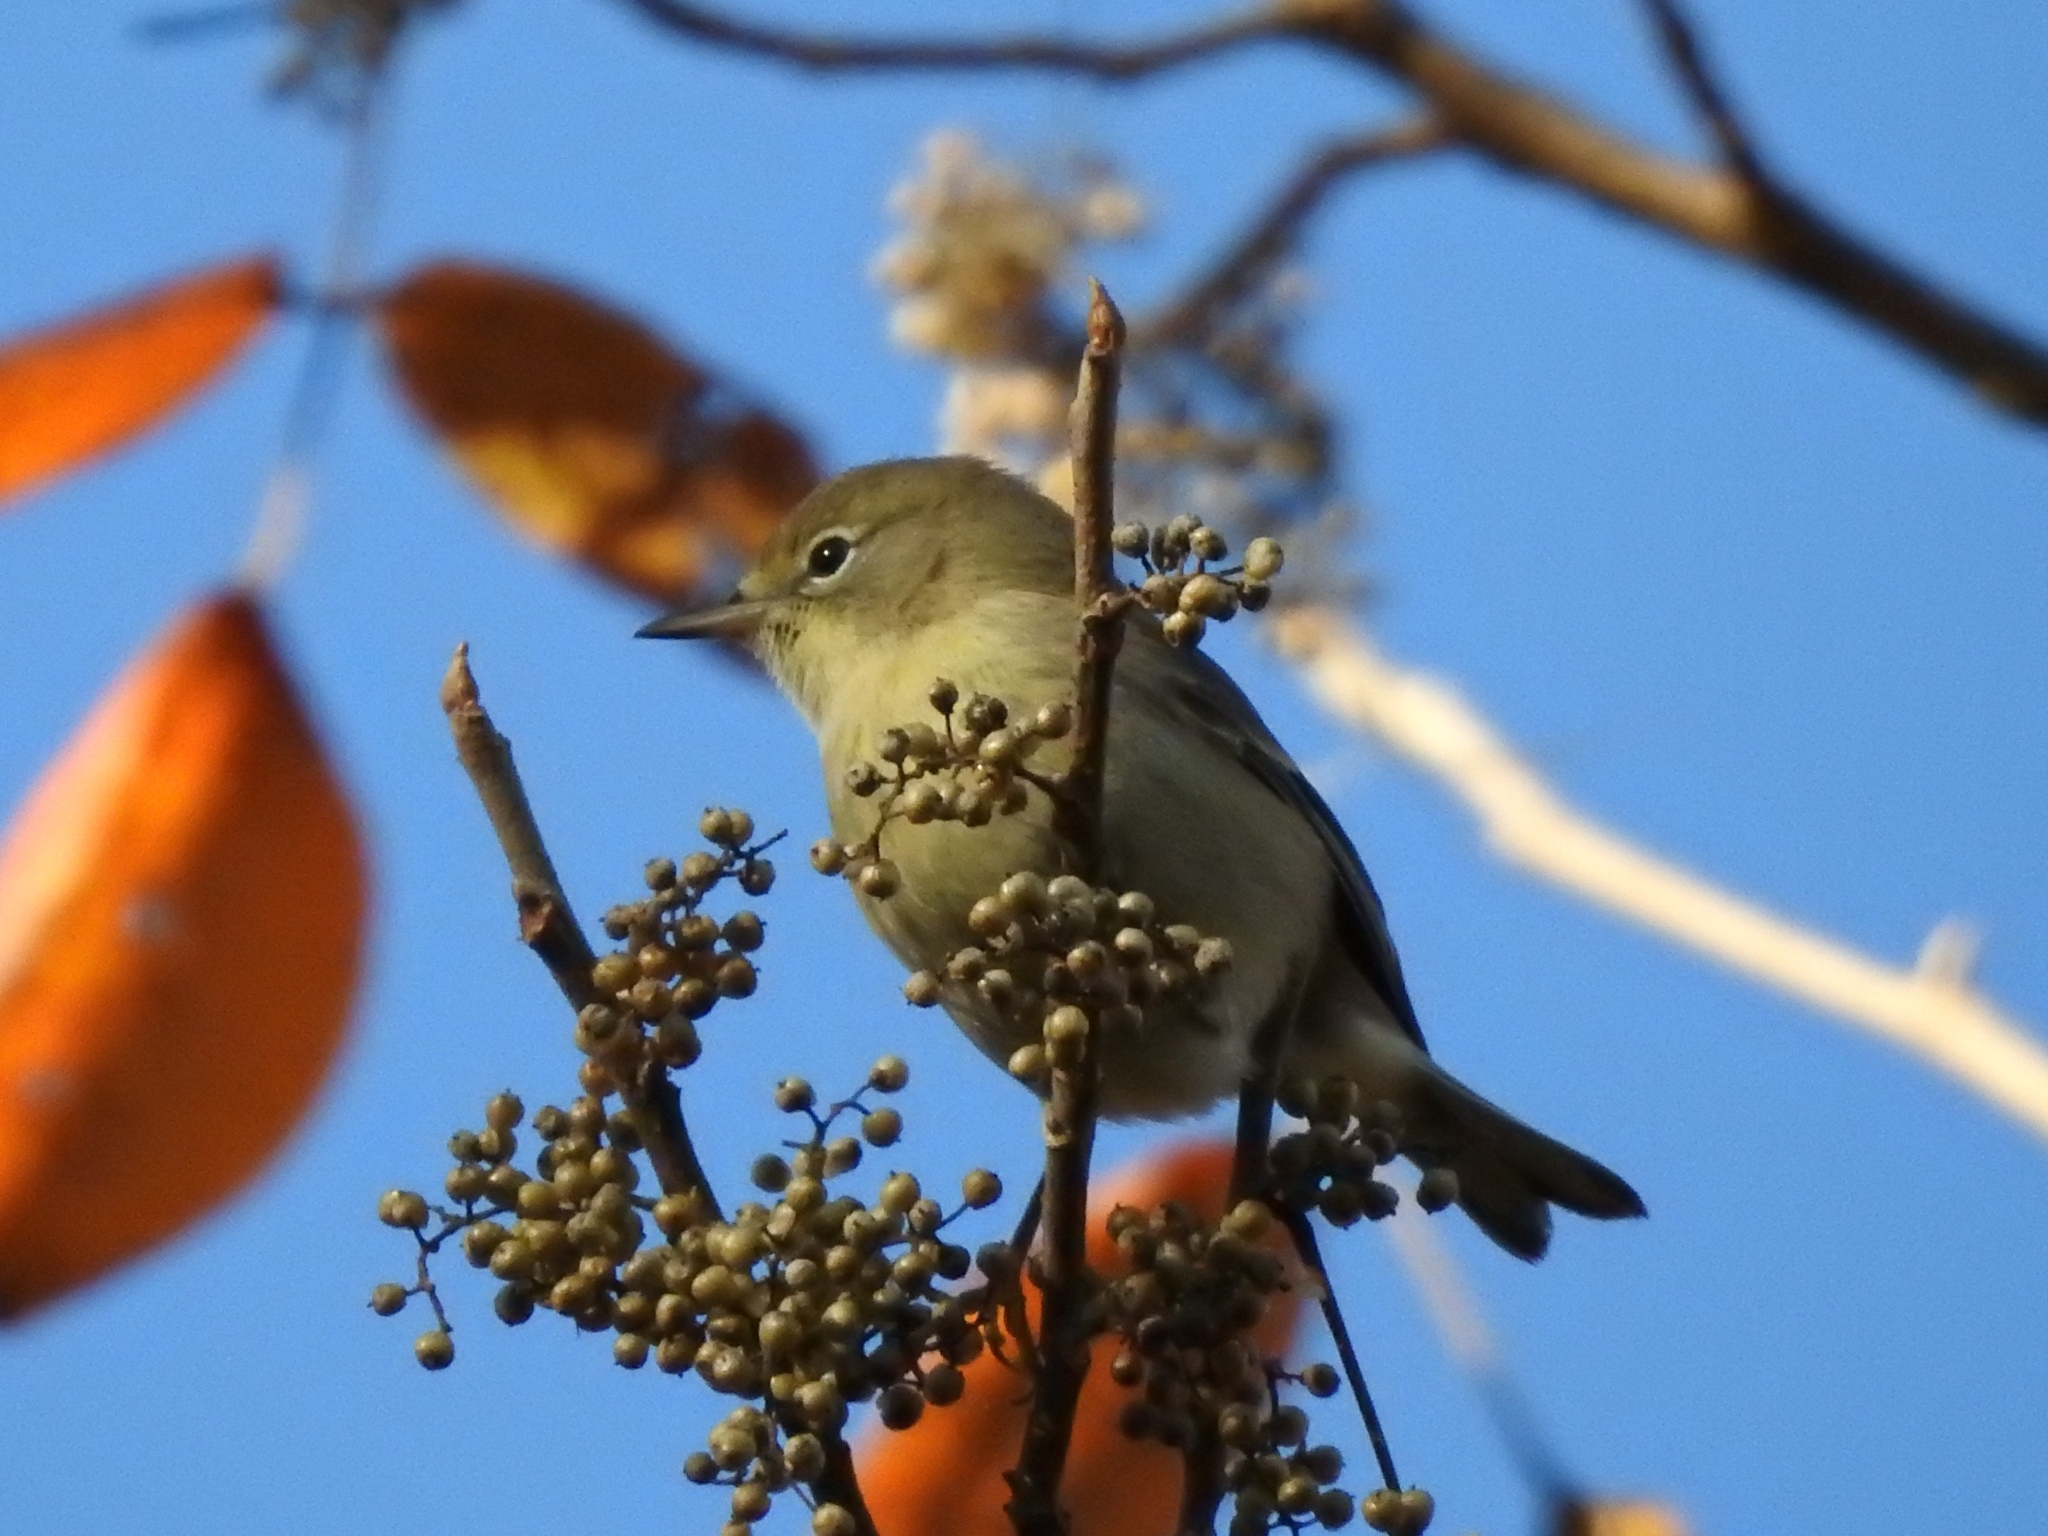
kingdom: Animalia
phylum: Chordata
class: Aves
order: Passeriformes
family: Parulidae
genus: Setophaga
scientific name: Setophaga pinus
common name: Pine warbler
